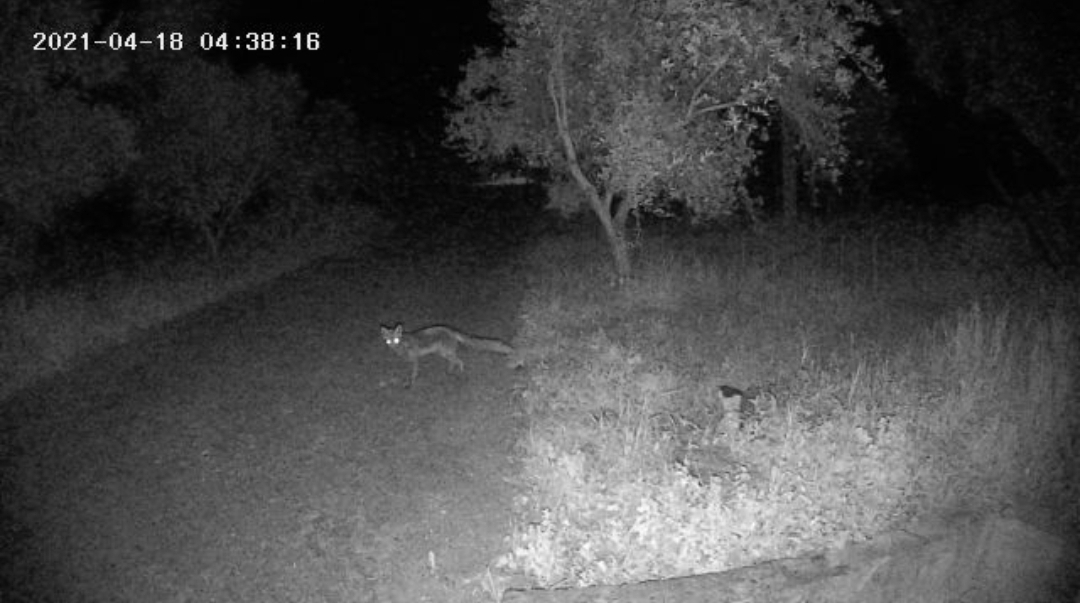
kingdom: Animalia
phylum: Chordata
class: Mammalia
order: Carnivora
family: Canidae
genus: Vulpes
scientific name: Vulpes vulpes
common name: Red fox
